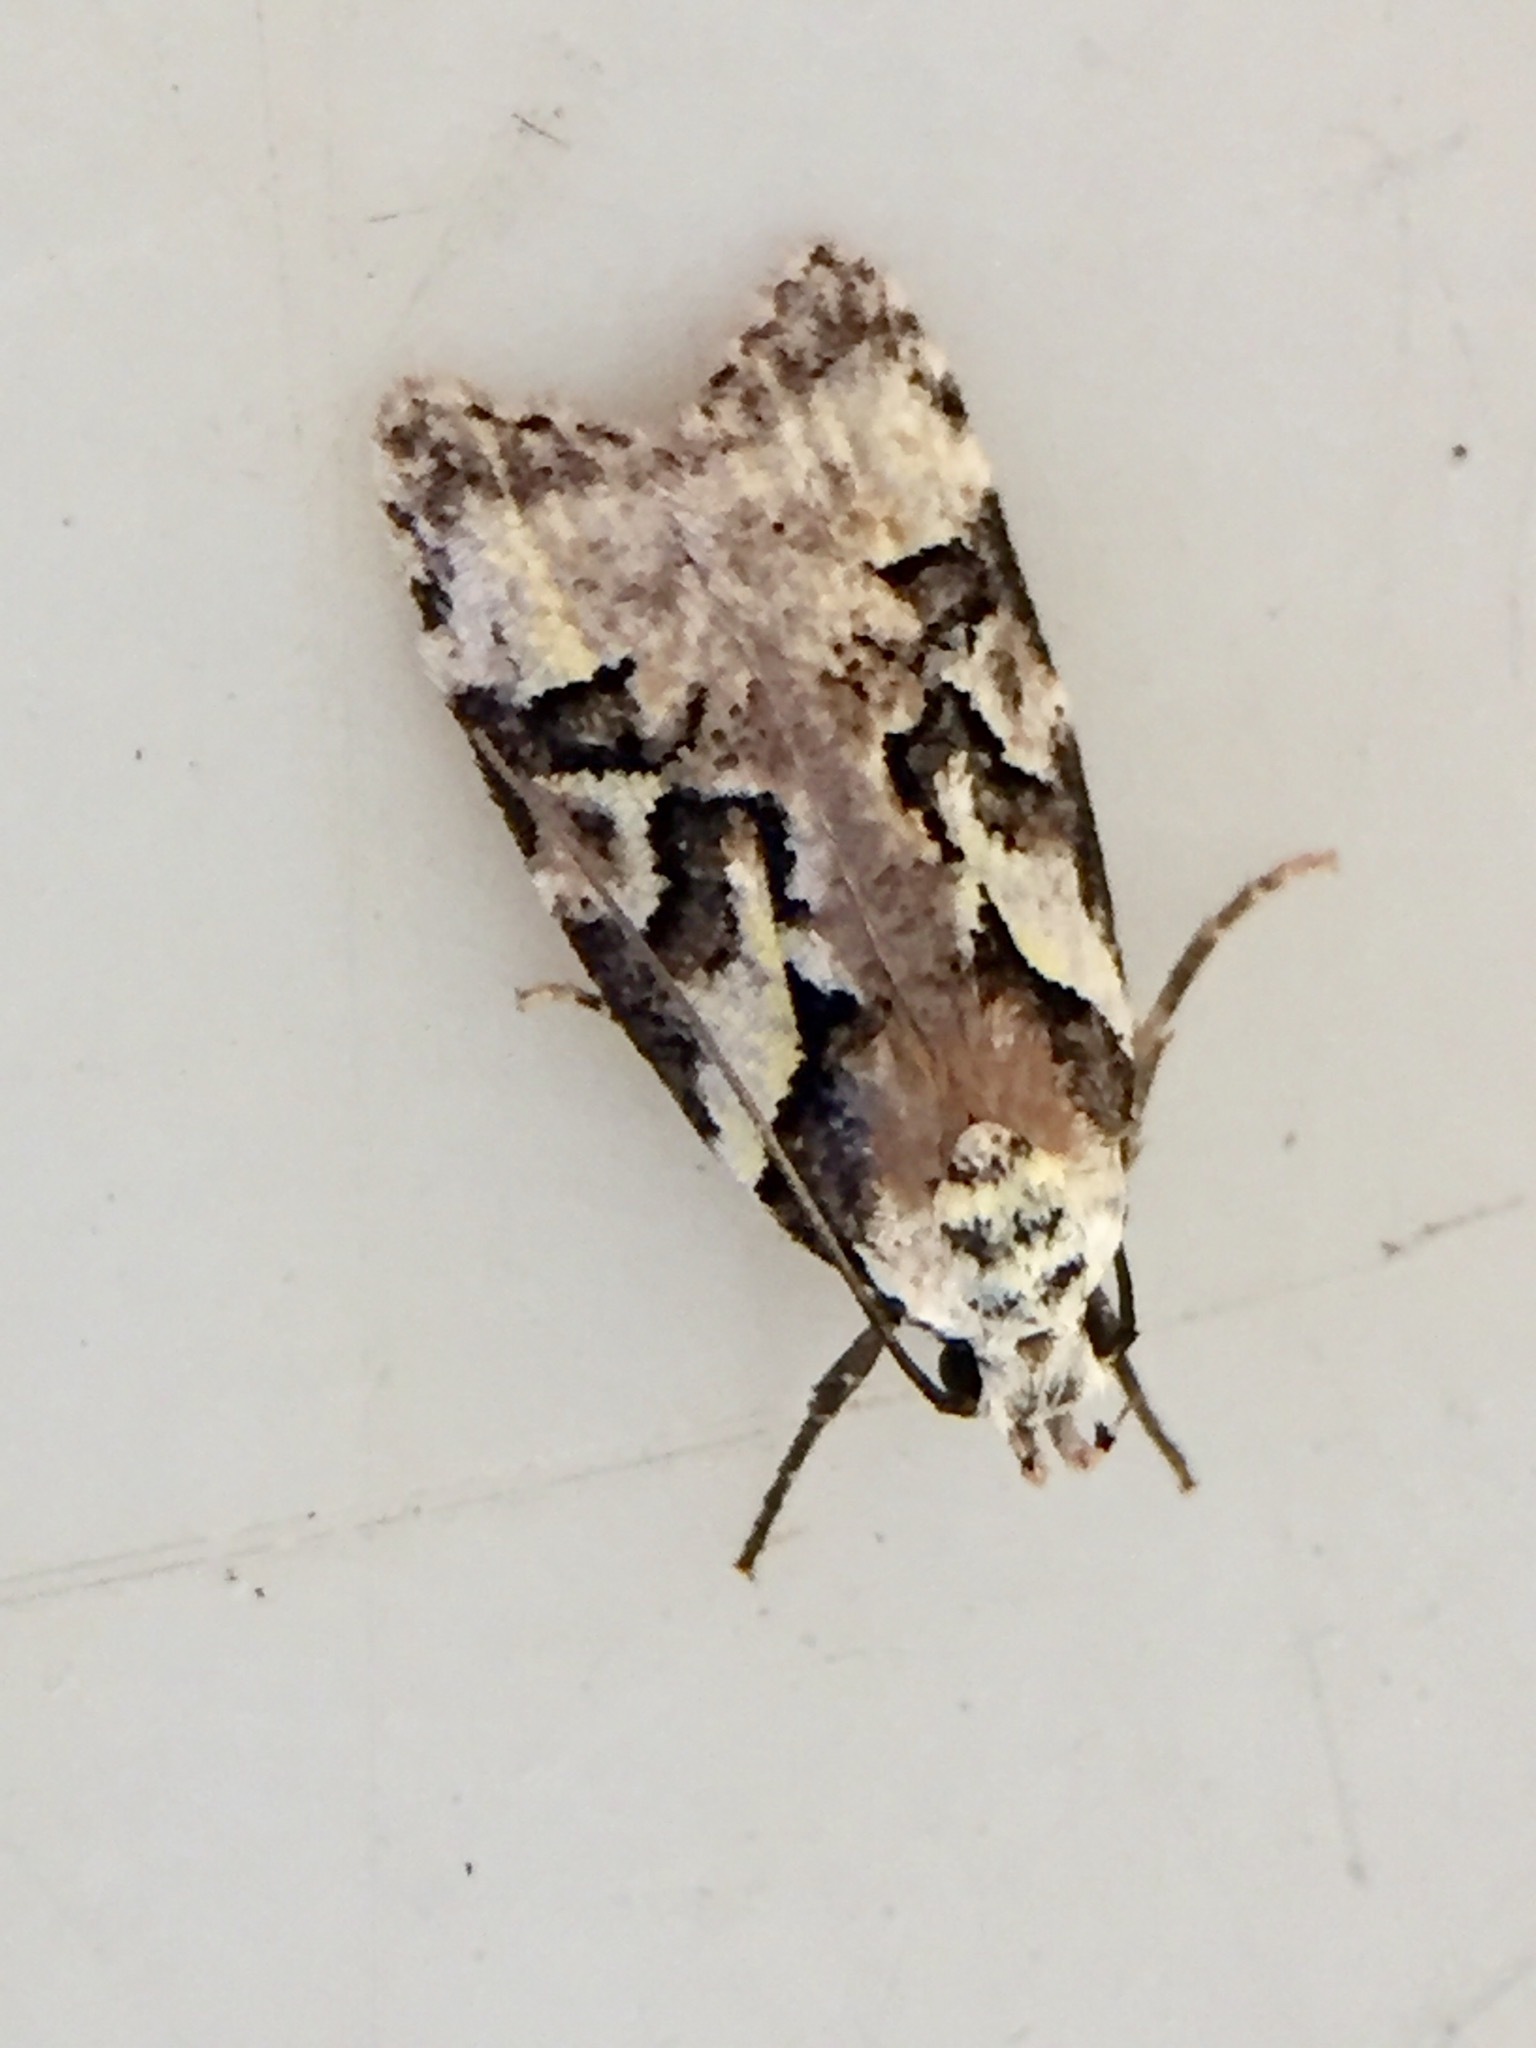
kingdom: Animalia
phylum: Arthropoda
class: Insecta
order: Lepidoptera
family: Oecophoridae
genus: Izatha
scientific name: Izatha epiphanes
